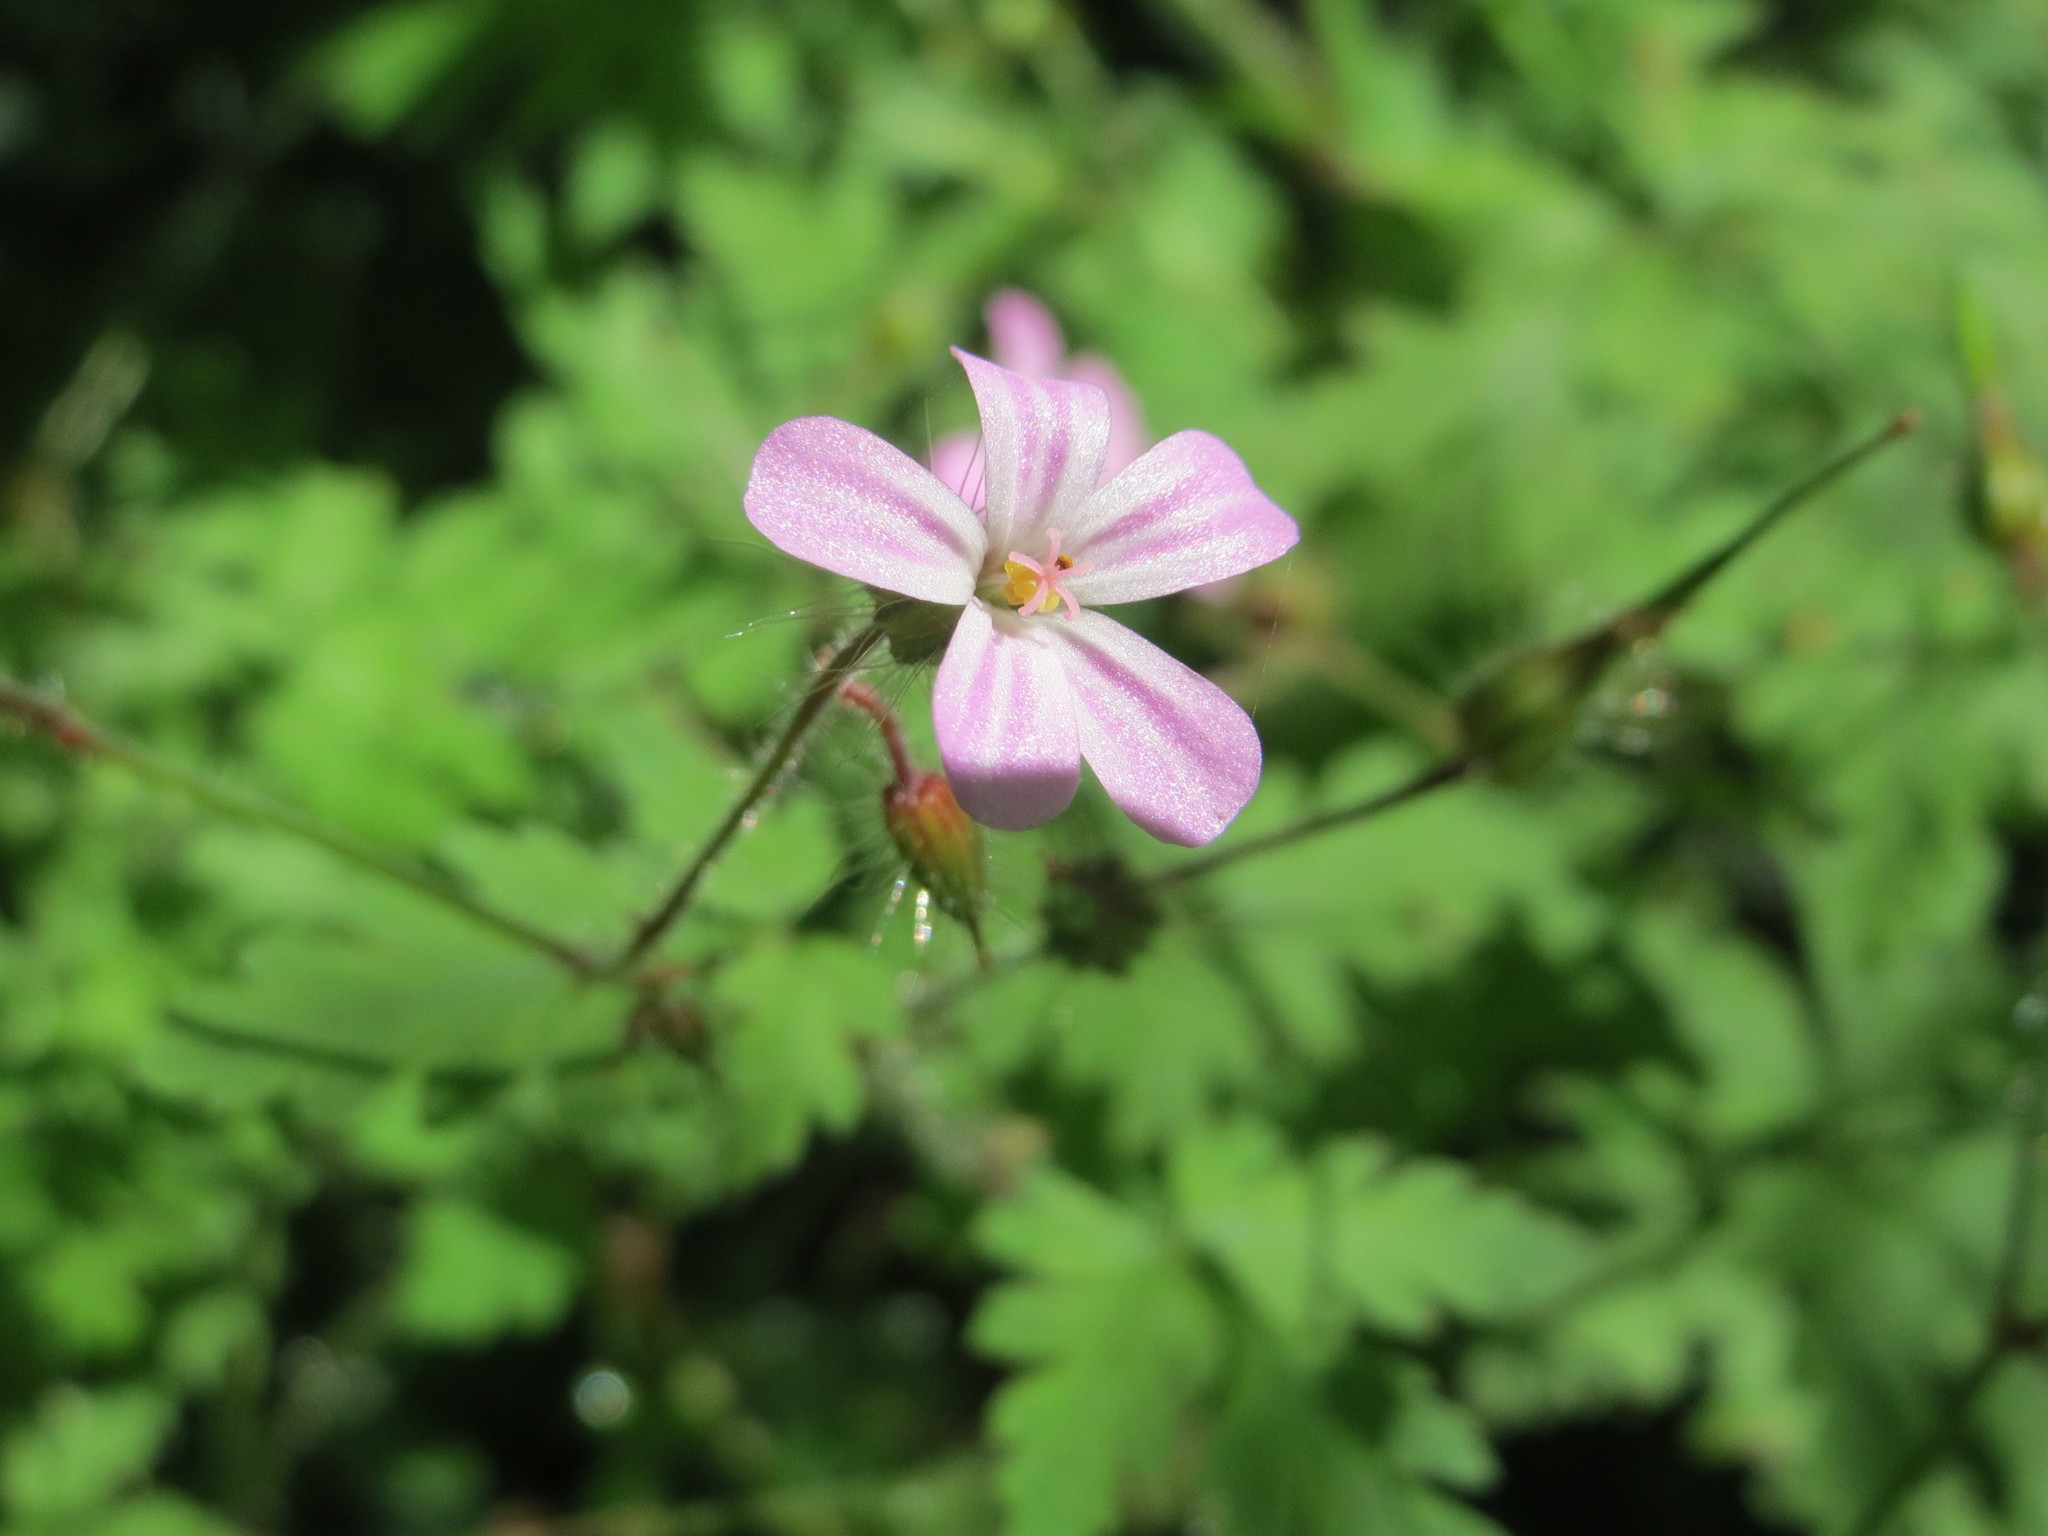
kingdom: Plantae
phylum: Tracheophyta
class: Magnoliopsida
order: Geraniales
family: Geraniaceae
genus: Geranium
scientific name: Geranium robertianum
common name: Herb-robert
